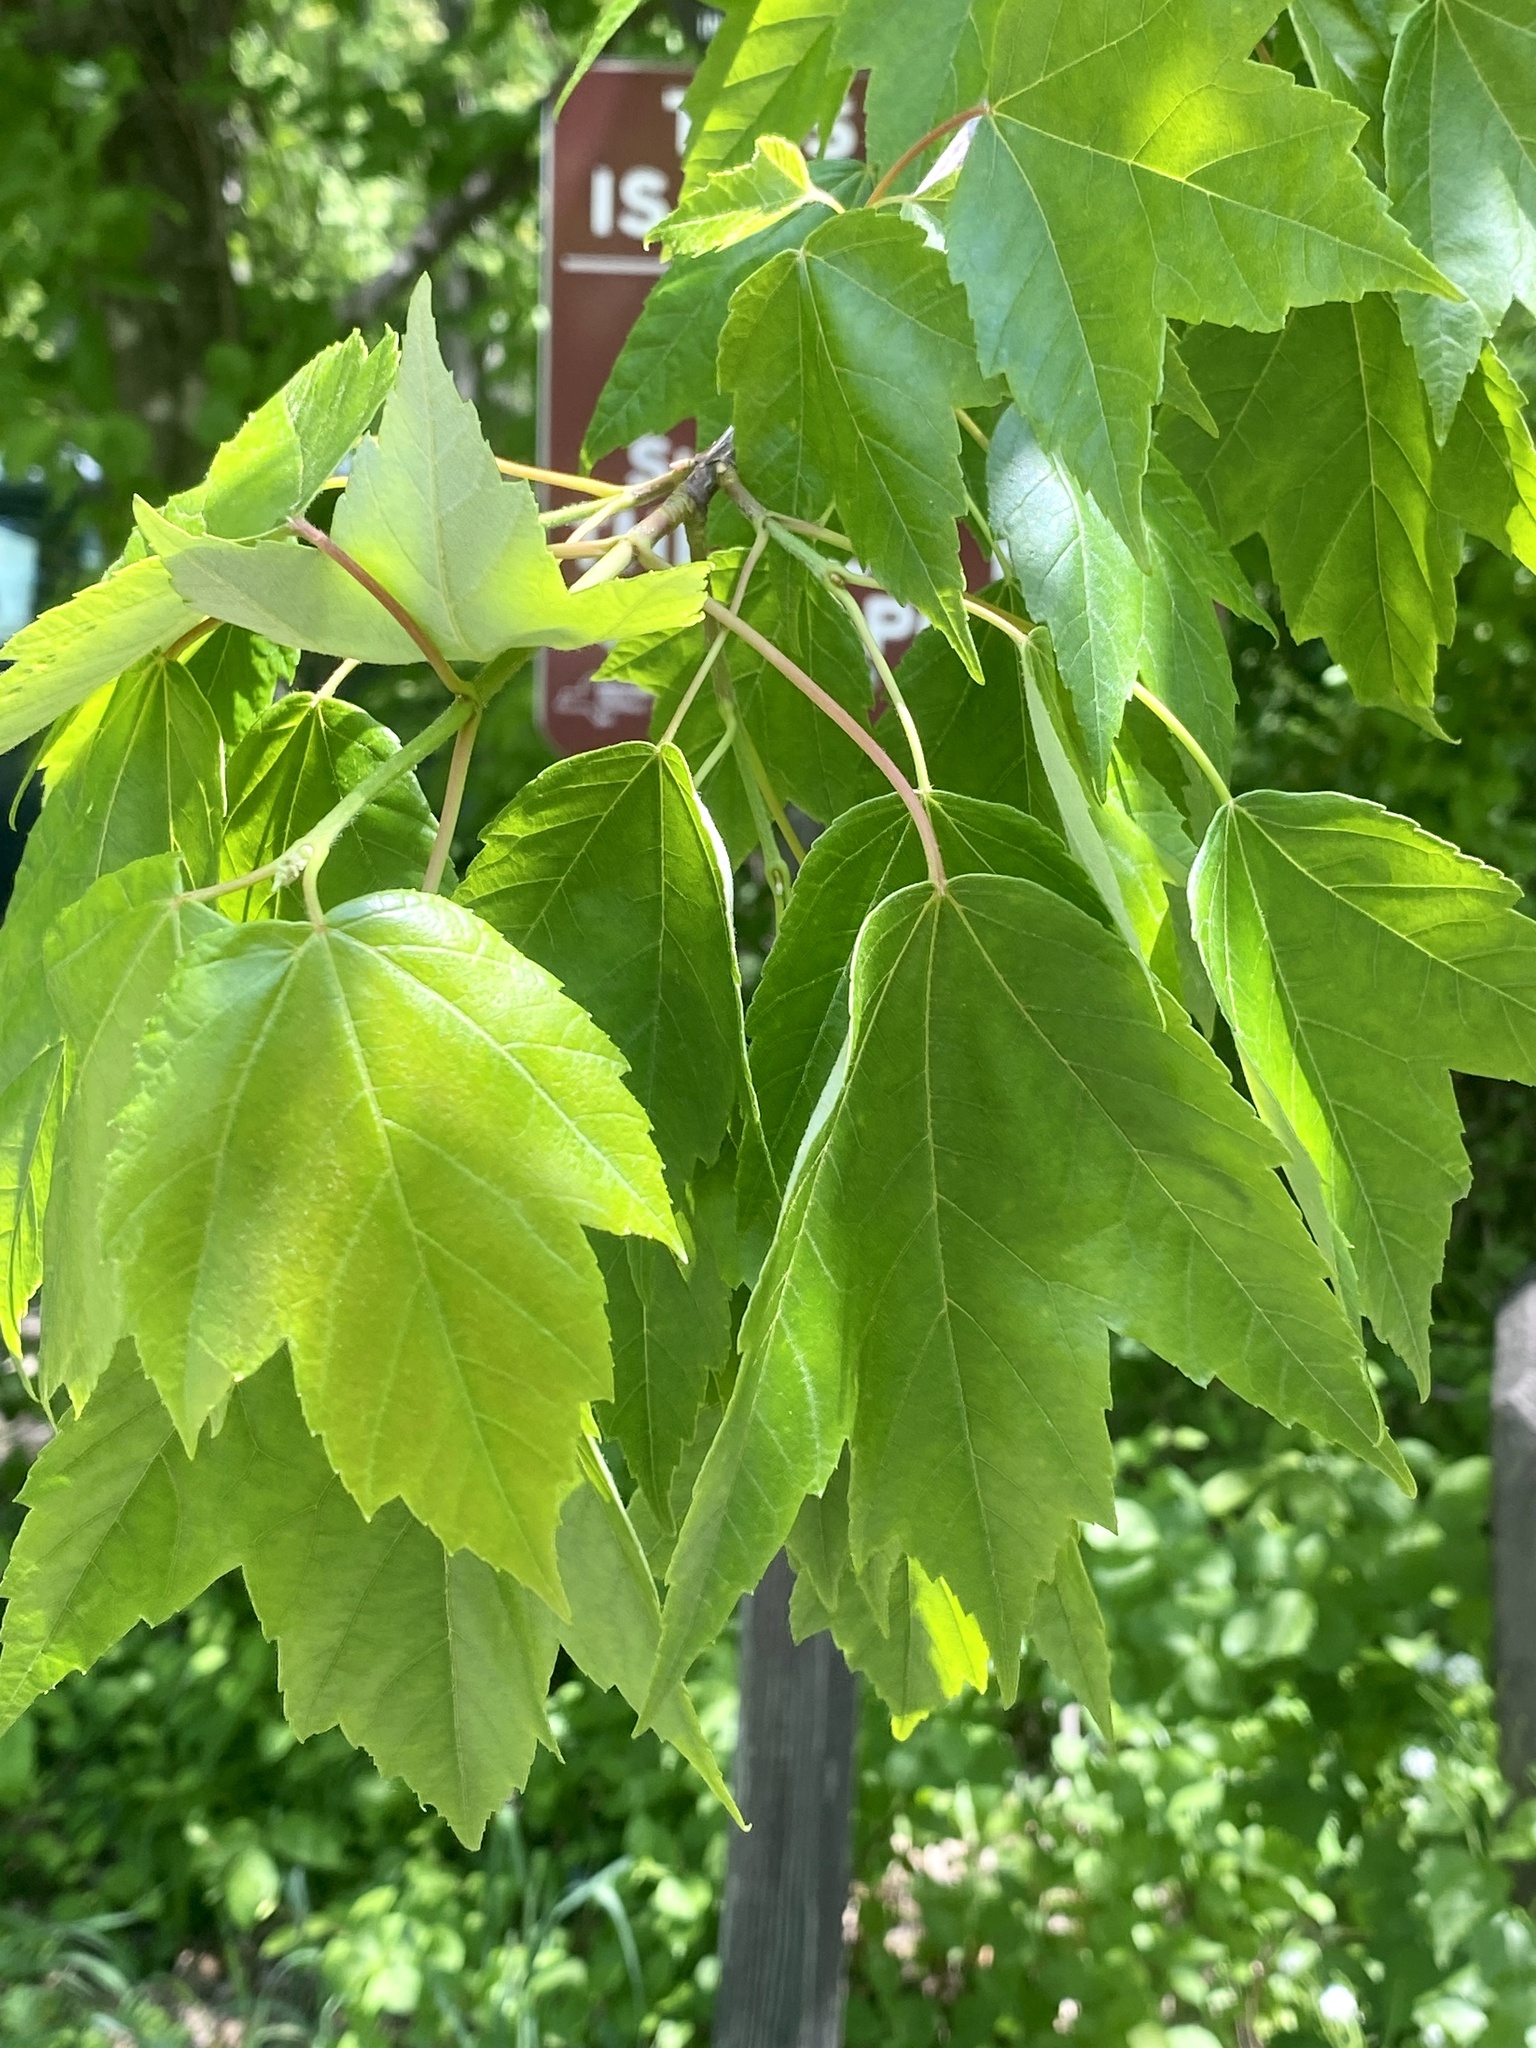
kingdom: Plantae
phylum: Tracheophyta
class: Magnoliopsida
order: Sapindales
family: Sapindaceae
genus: Acer
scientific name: Acer rubrum
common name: Red maple
